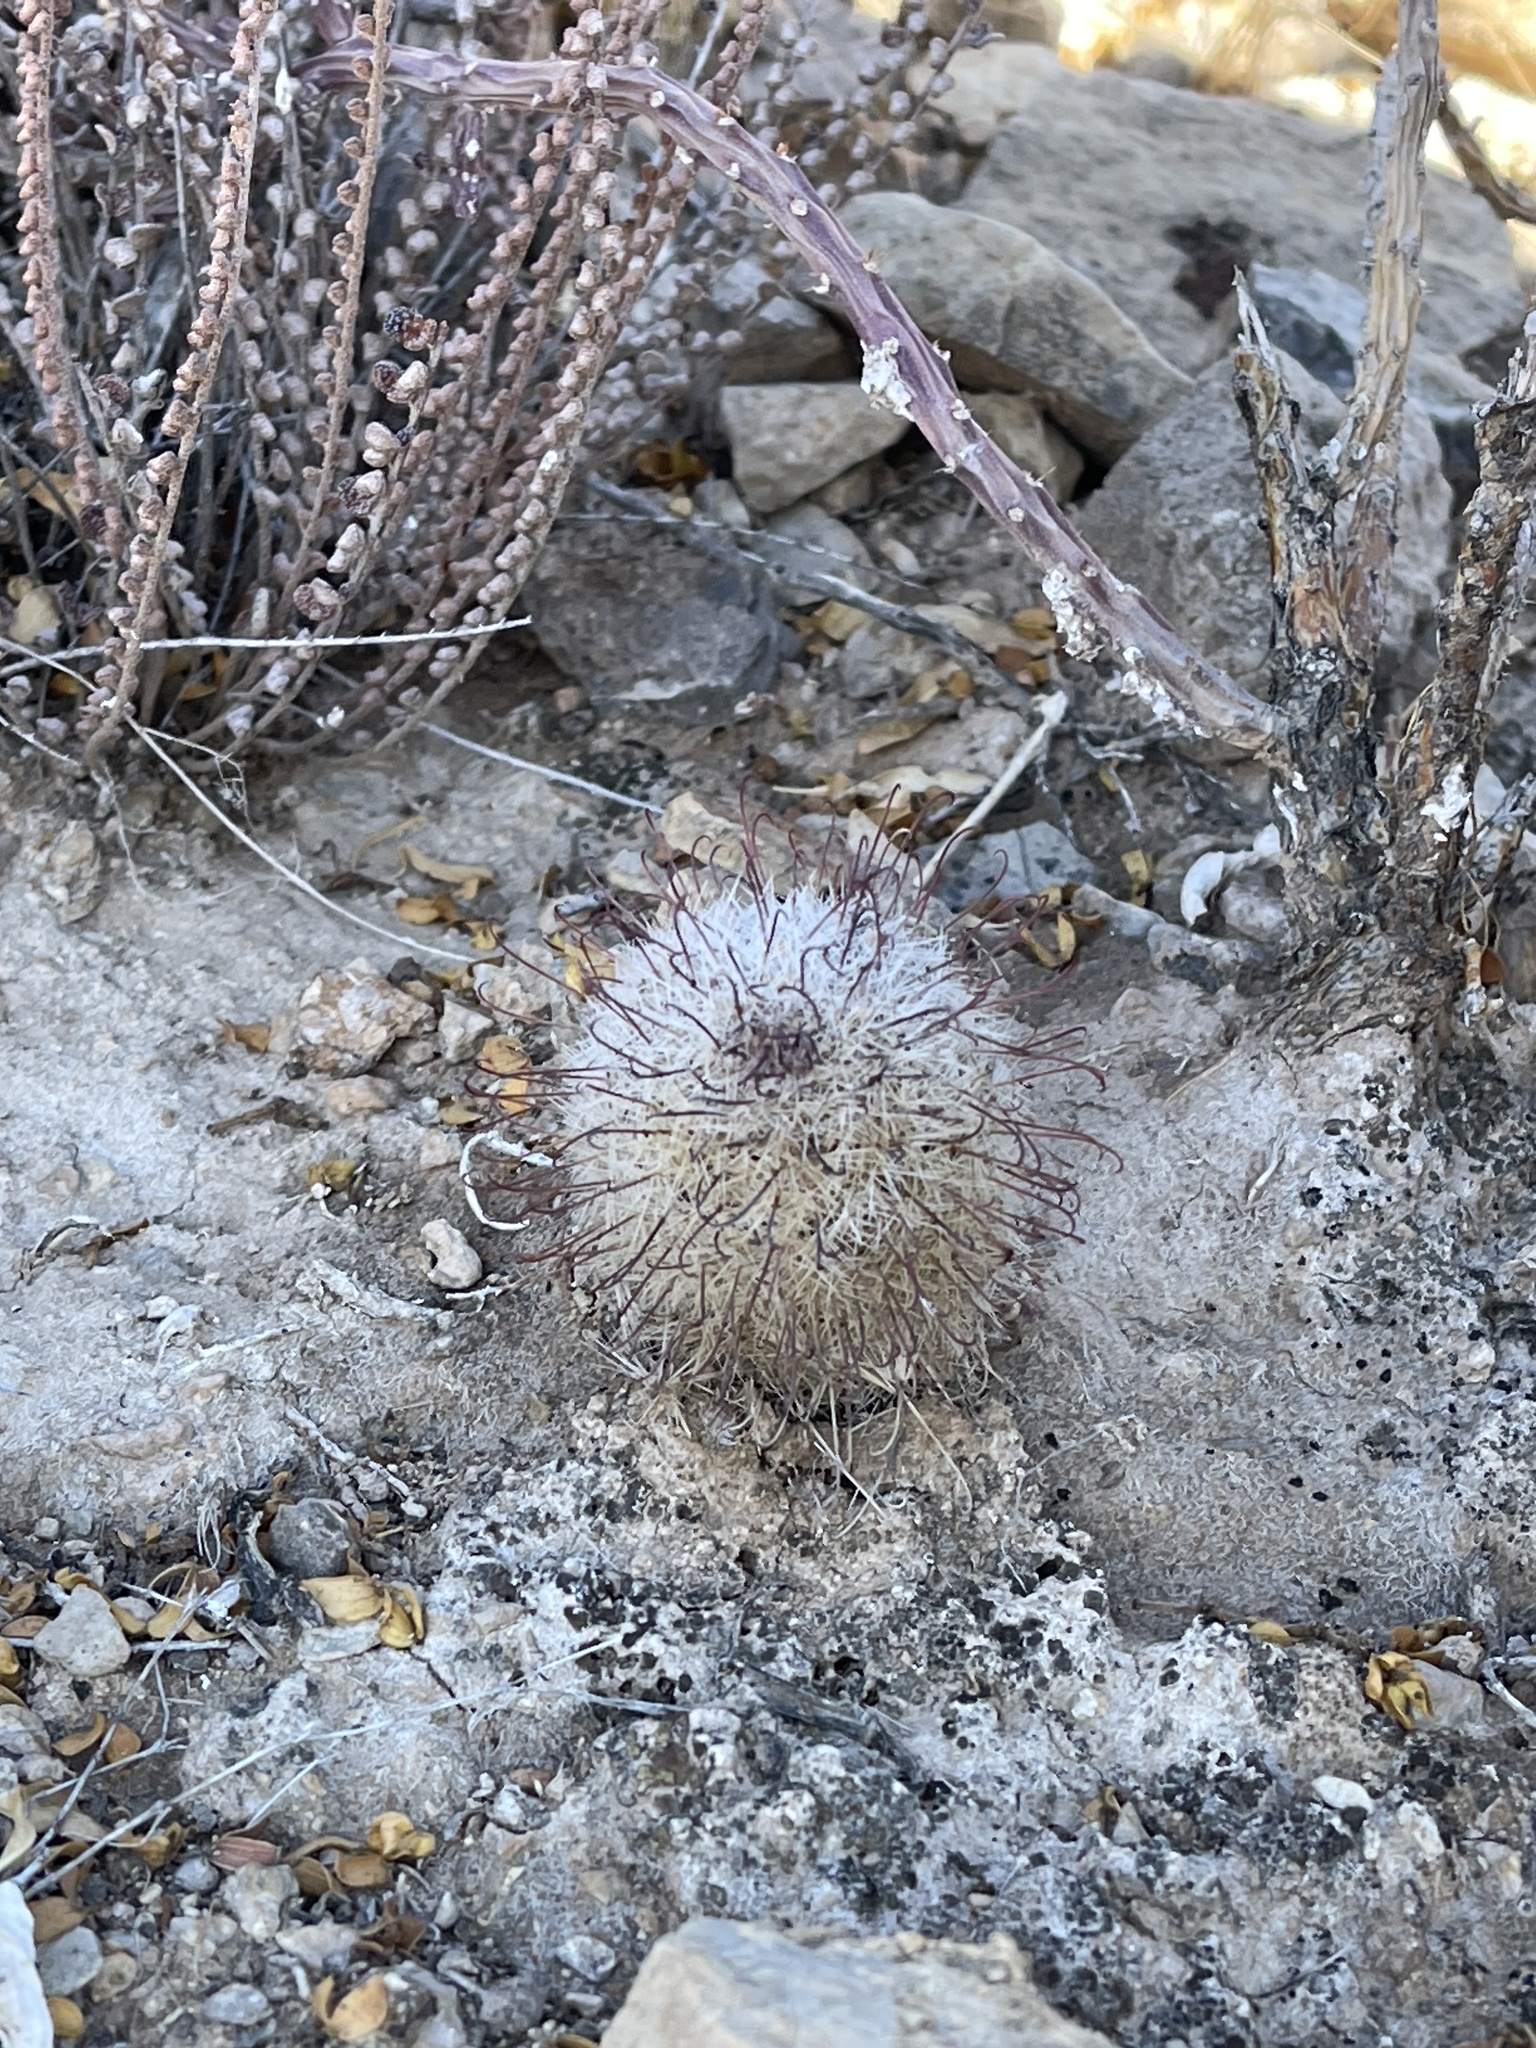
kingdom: Plantae
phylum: Tracheophyta
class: Magnoliopsida
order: Caryophyllales
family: Cactaceae
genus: Cochemiea
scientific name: Cochemiea grahamii
